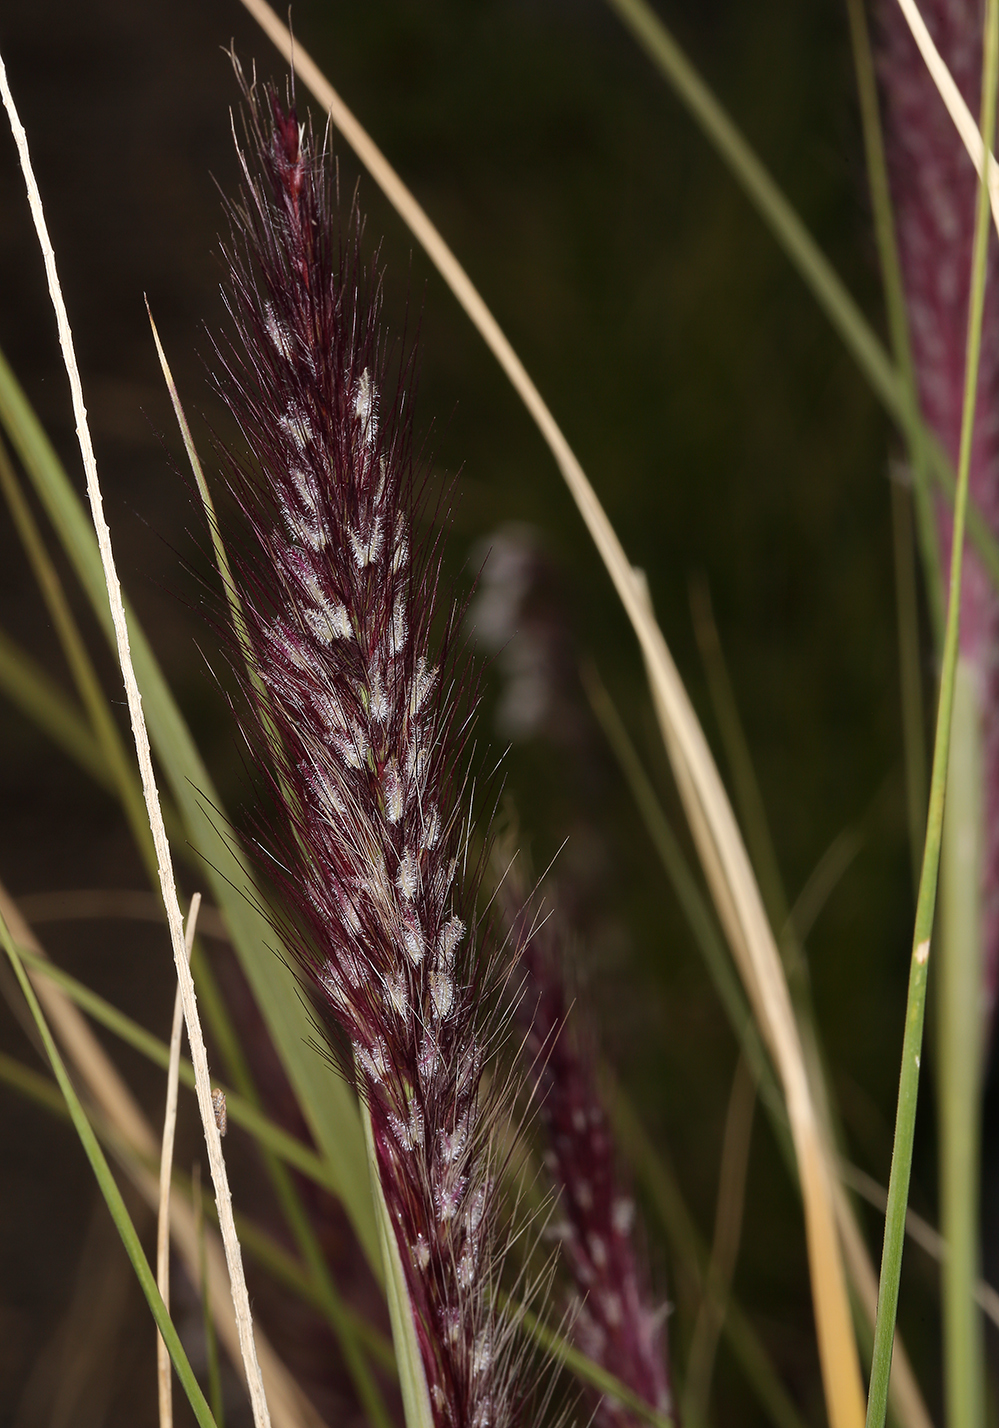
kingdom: Plantae
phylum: Tracheophyta
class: Liliopsida
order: Poales
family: Poaceae
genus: Cenchrus
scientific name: Cenchrus setaceus
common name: Crimson fountaingrass
